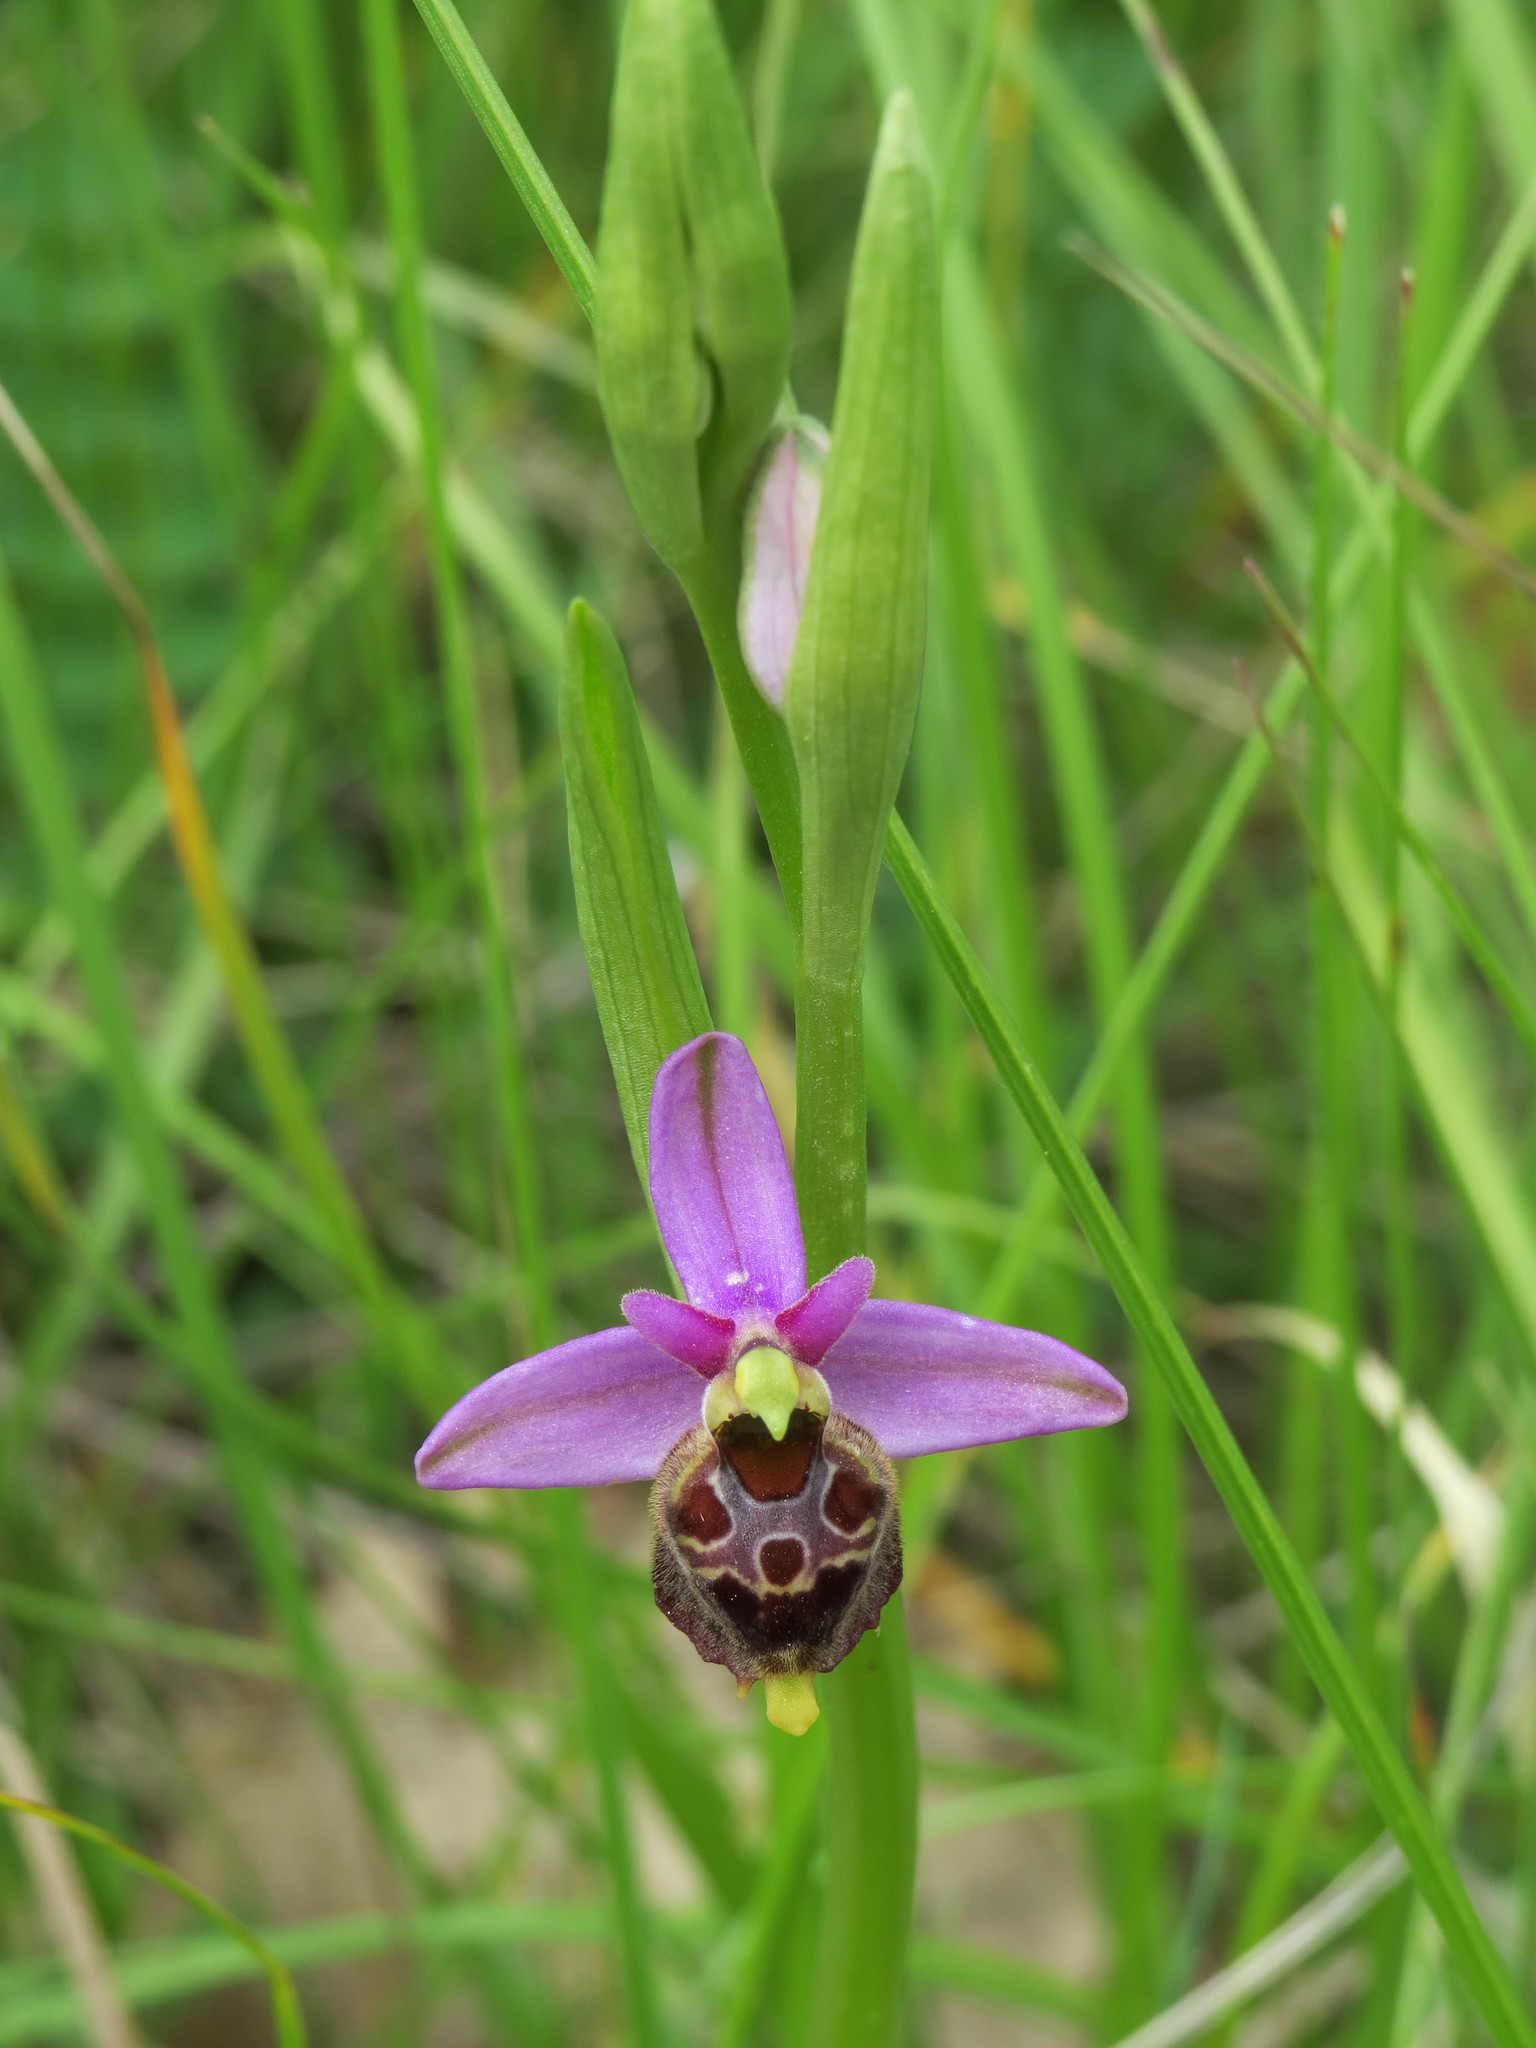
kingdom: Plantae
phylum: Tracheophyta
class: Liliopsida
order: Asparagales
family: Orchidaceae
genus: Ophrys
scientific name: Ophrys holosericea
